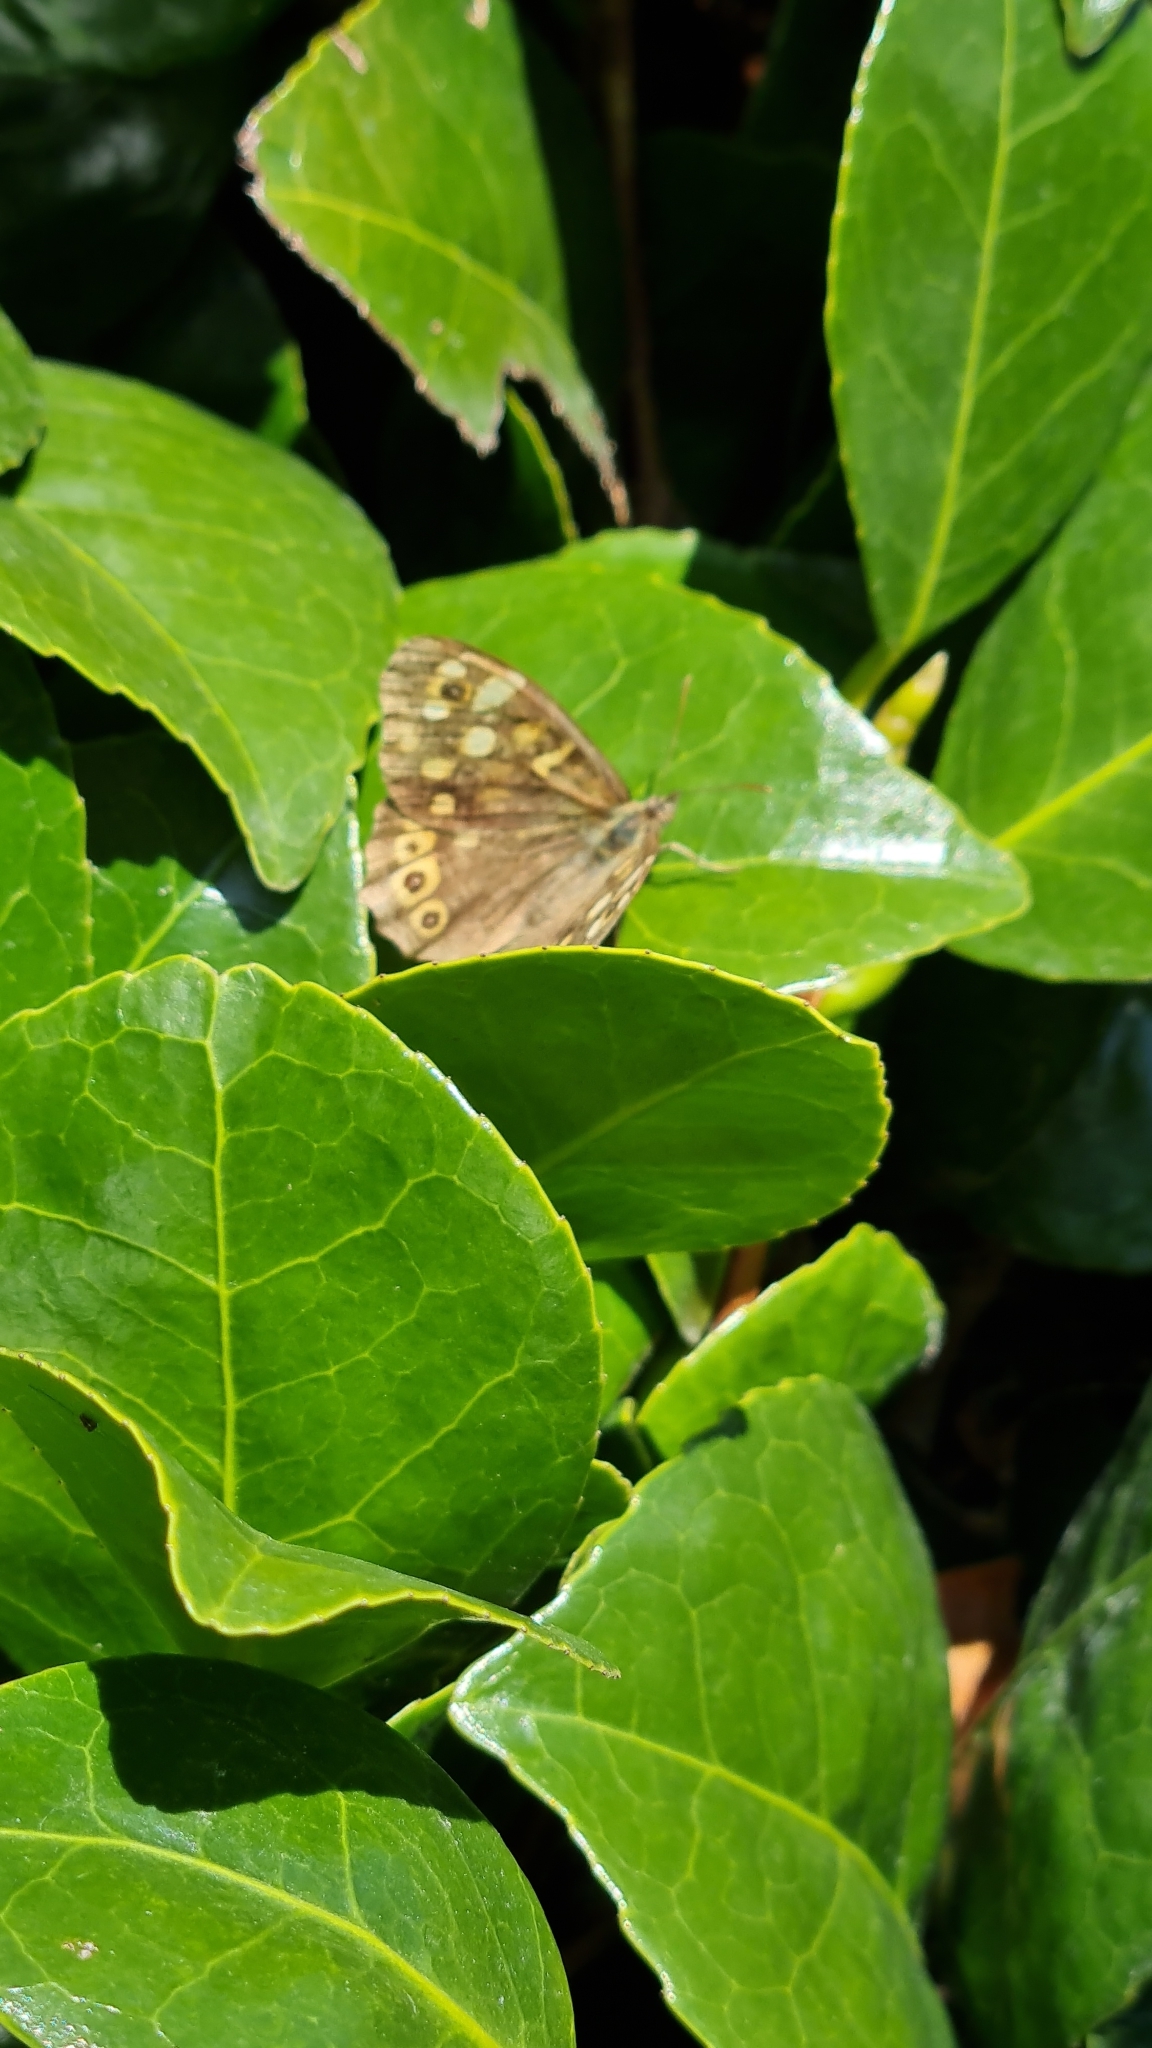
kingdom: Animalia
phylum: Arthropoda
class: Insecta
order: Lepidoptera
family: Nymphalidae
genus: Pararge
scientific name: Pararge aegeria
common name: Speckled wood
